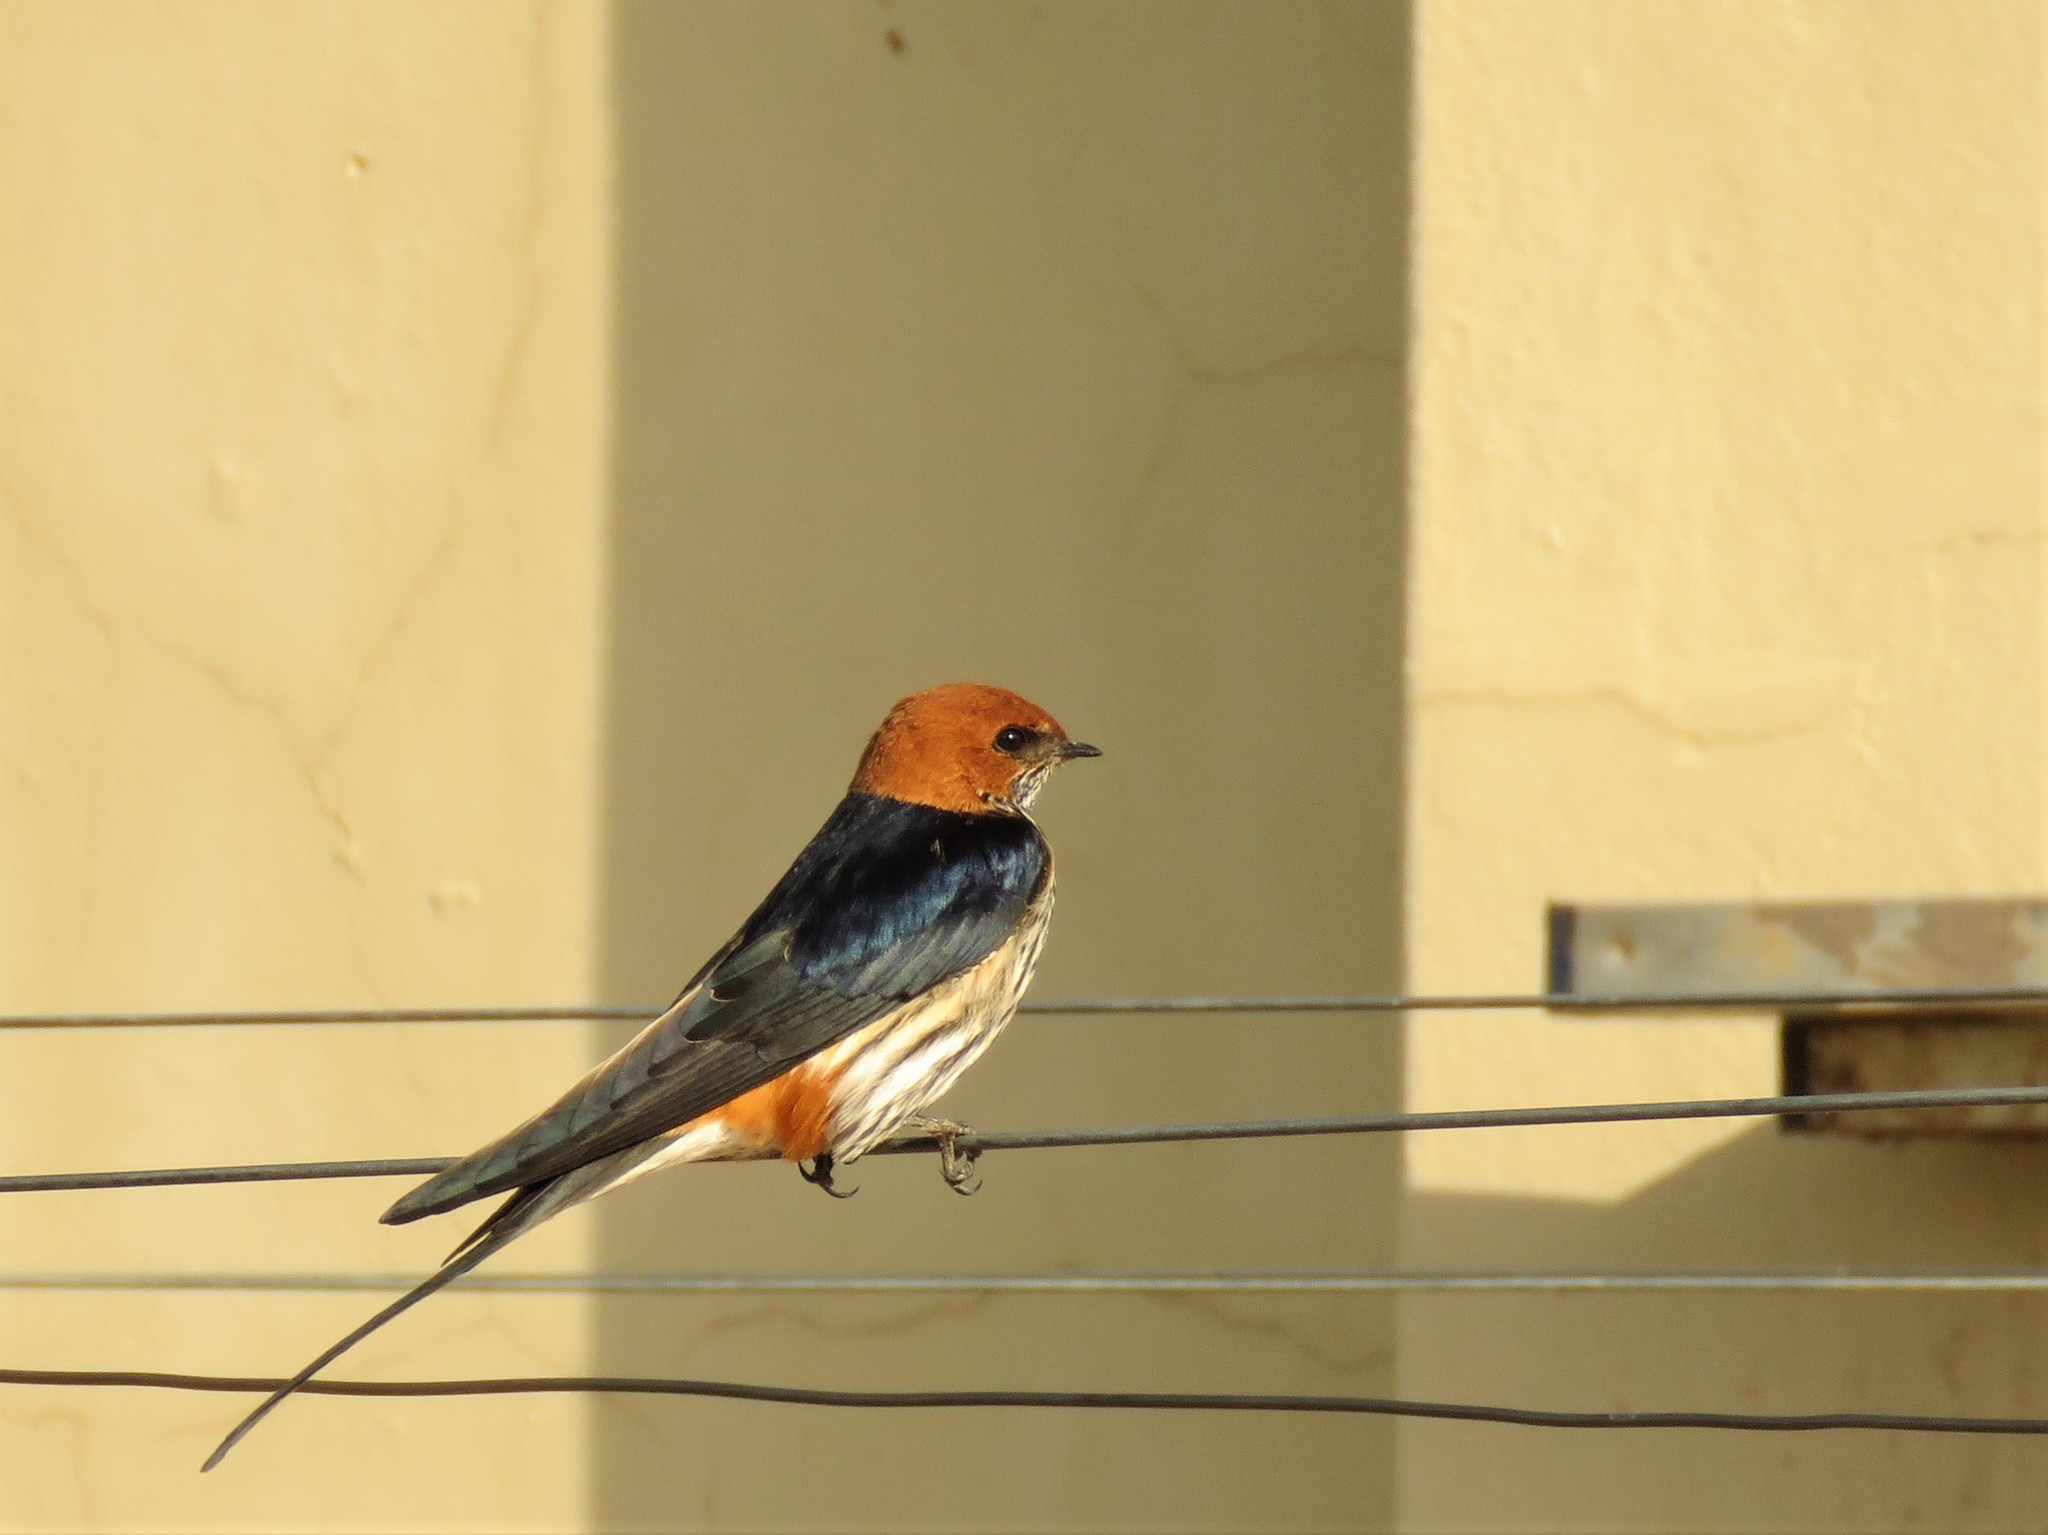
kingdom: Animalia
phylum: Chordata
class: Aves
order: Passeriformes
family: Hirundinidae
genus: Cecropis
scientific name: Cecropis abyssinica
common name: Lesser striped-swallow
